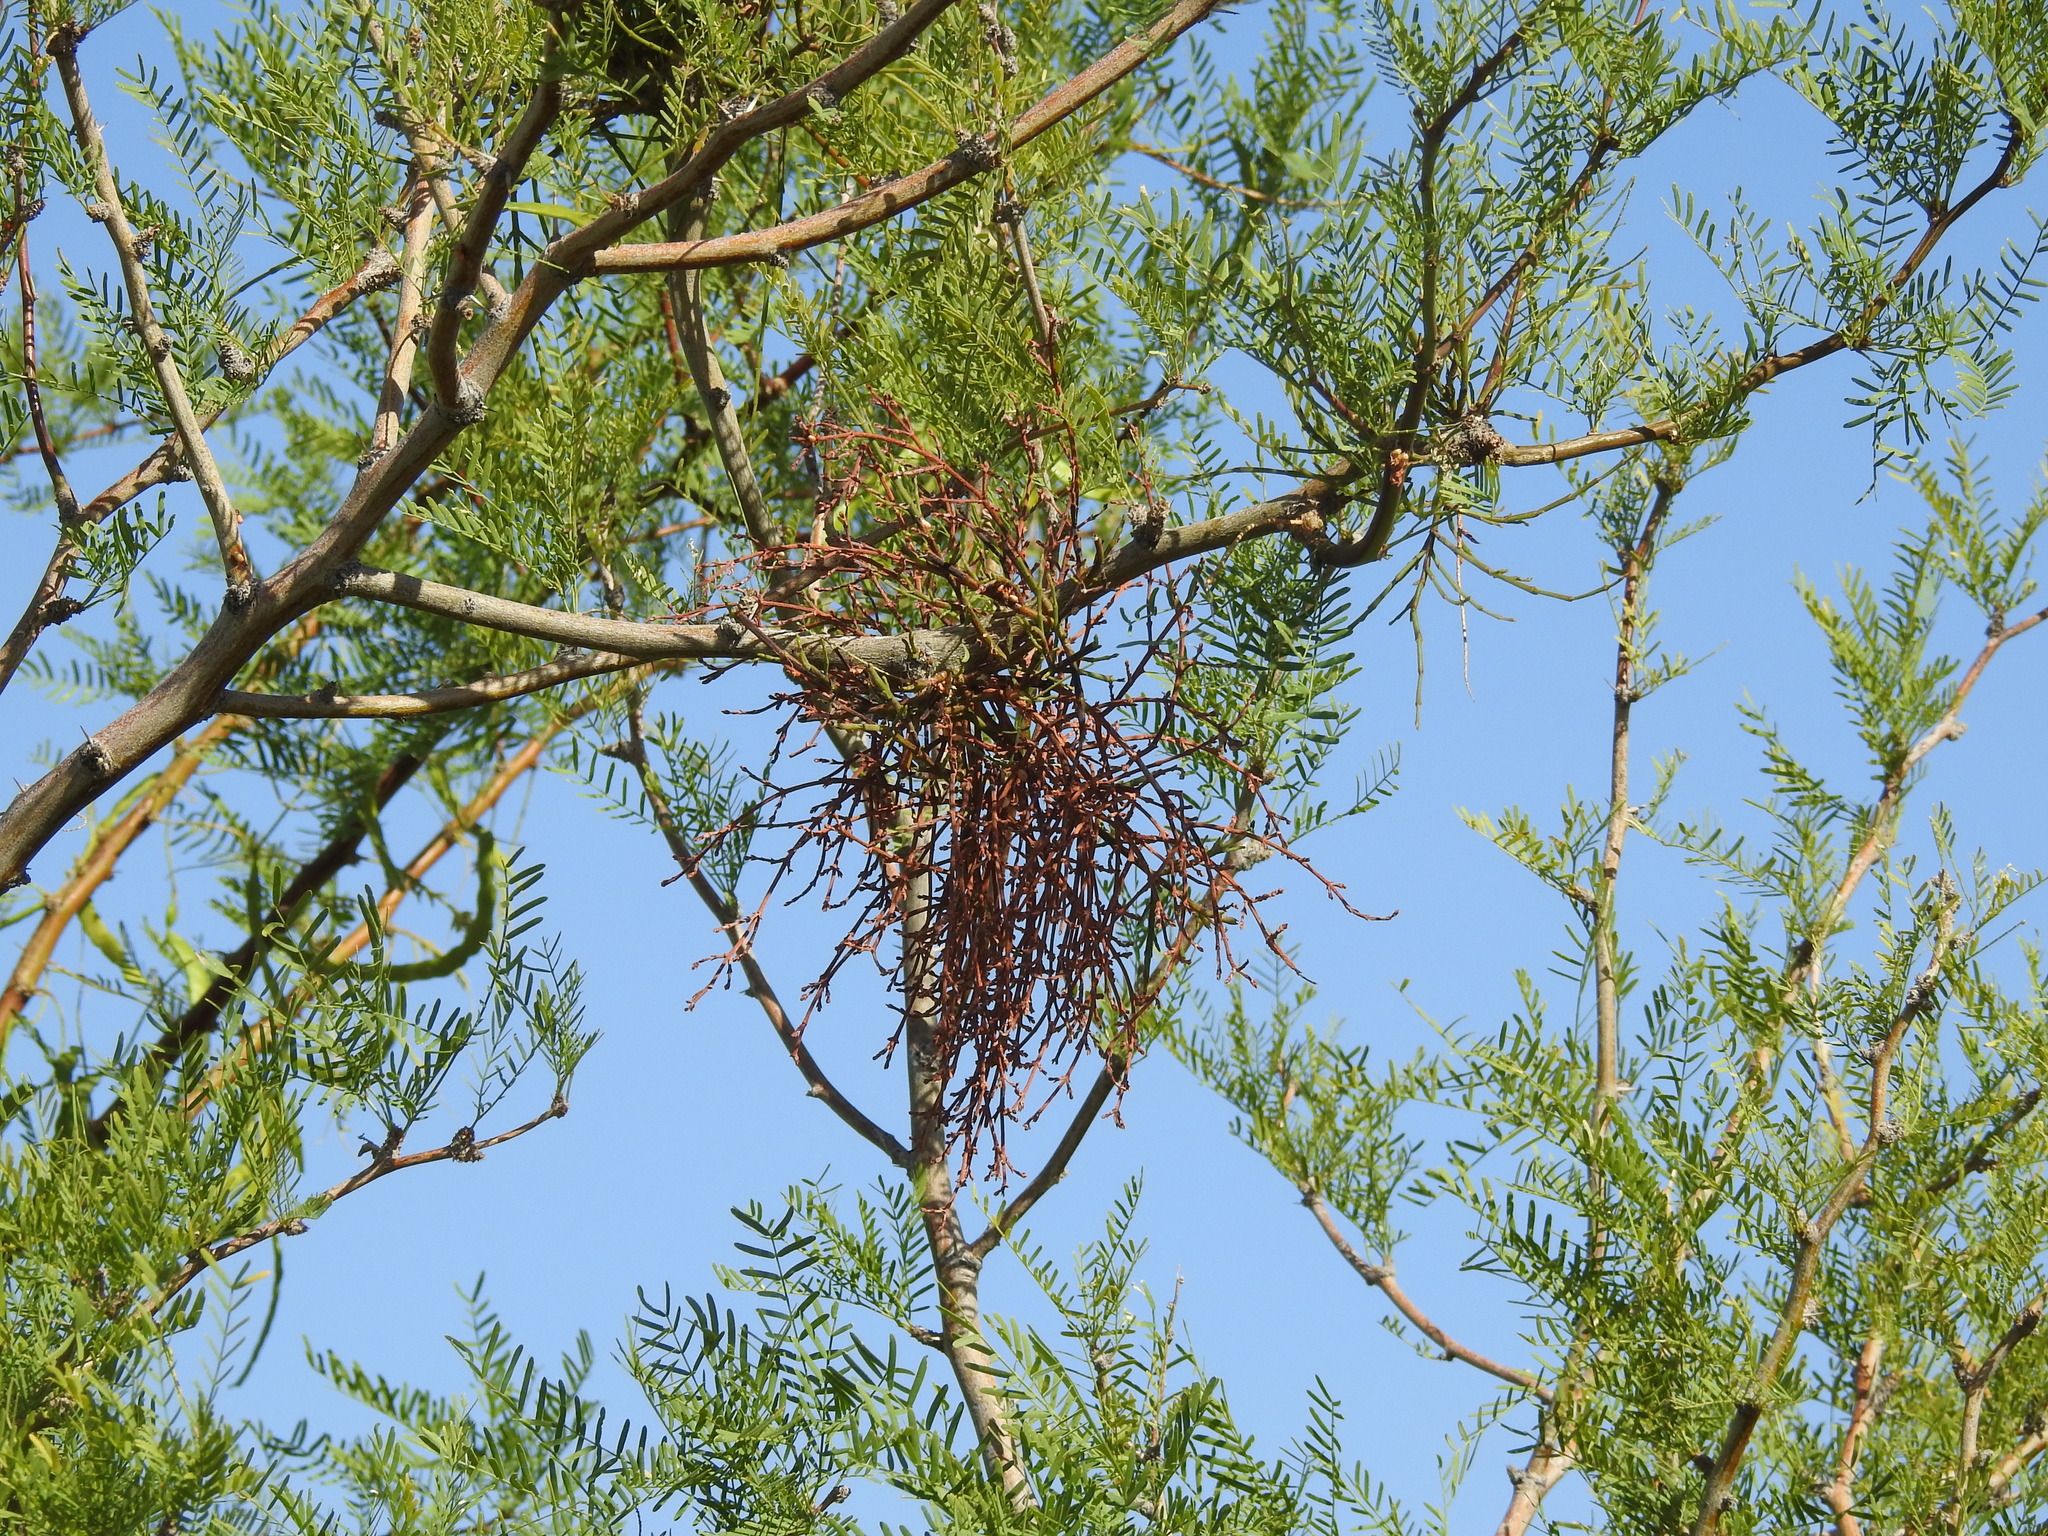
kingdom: Plantae
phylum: Tracheophyta
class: Magnoliopsida
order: Santalales
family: Viscaceae
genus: Phoradendron
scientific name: Phoradendron californicum
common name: Acacia mistletoe
